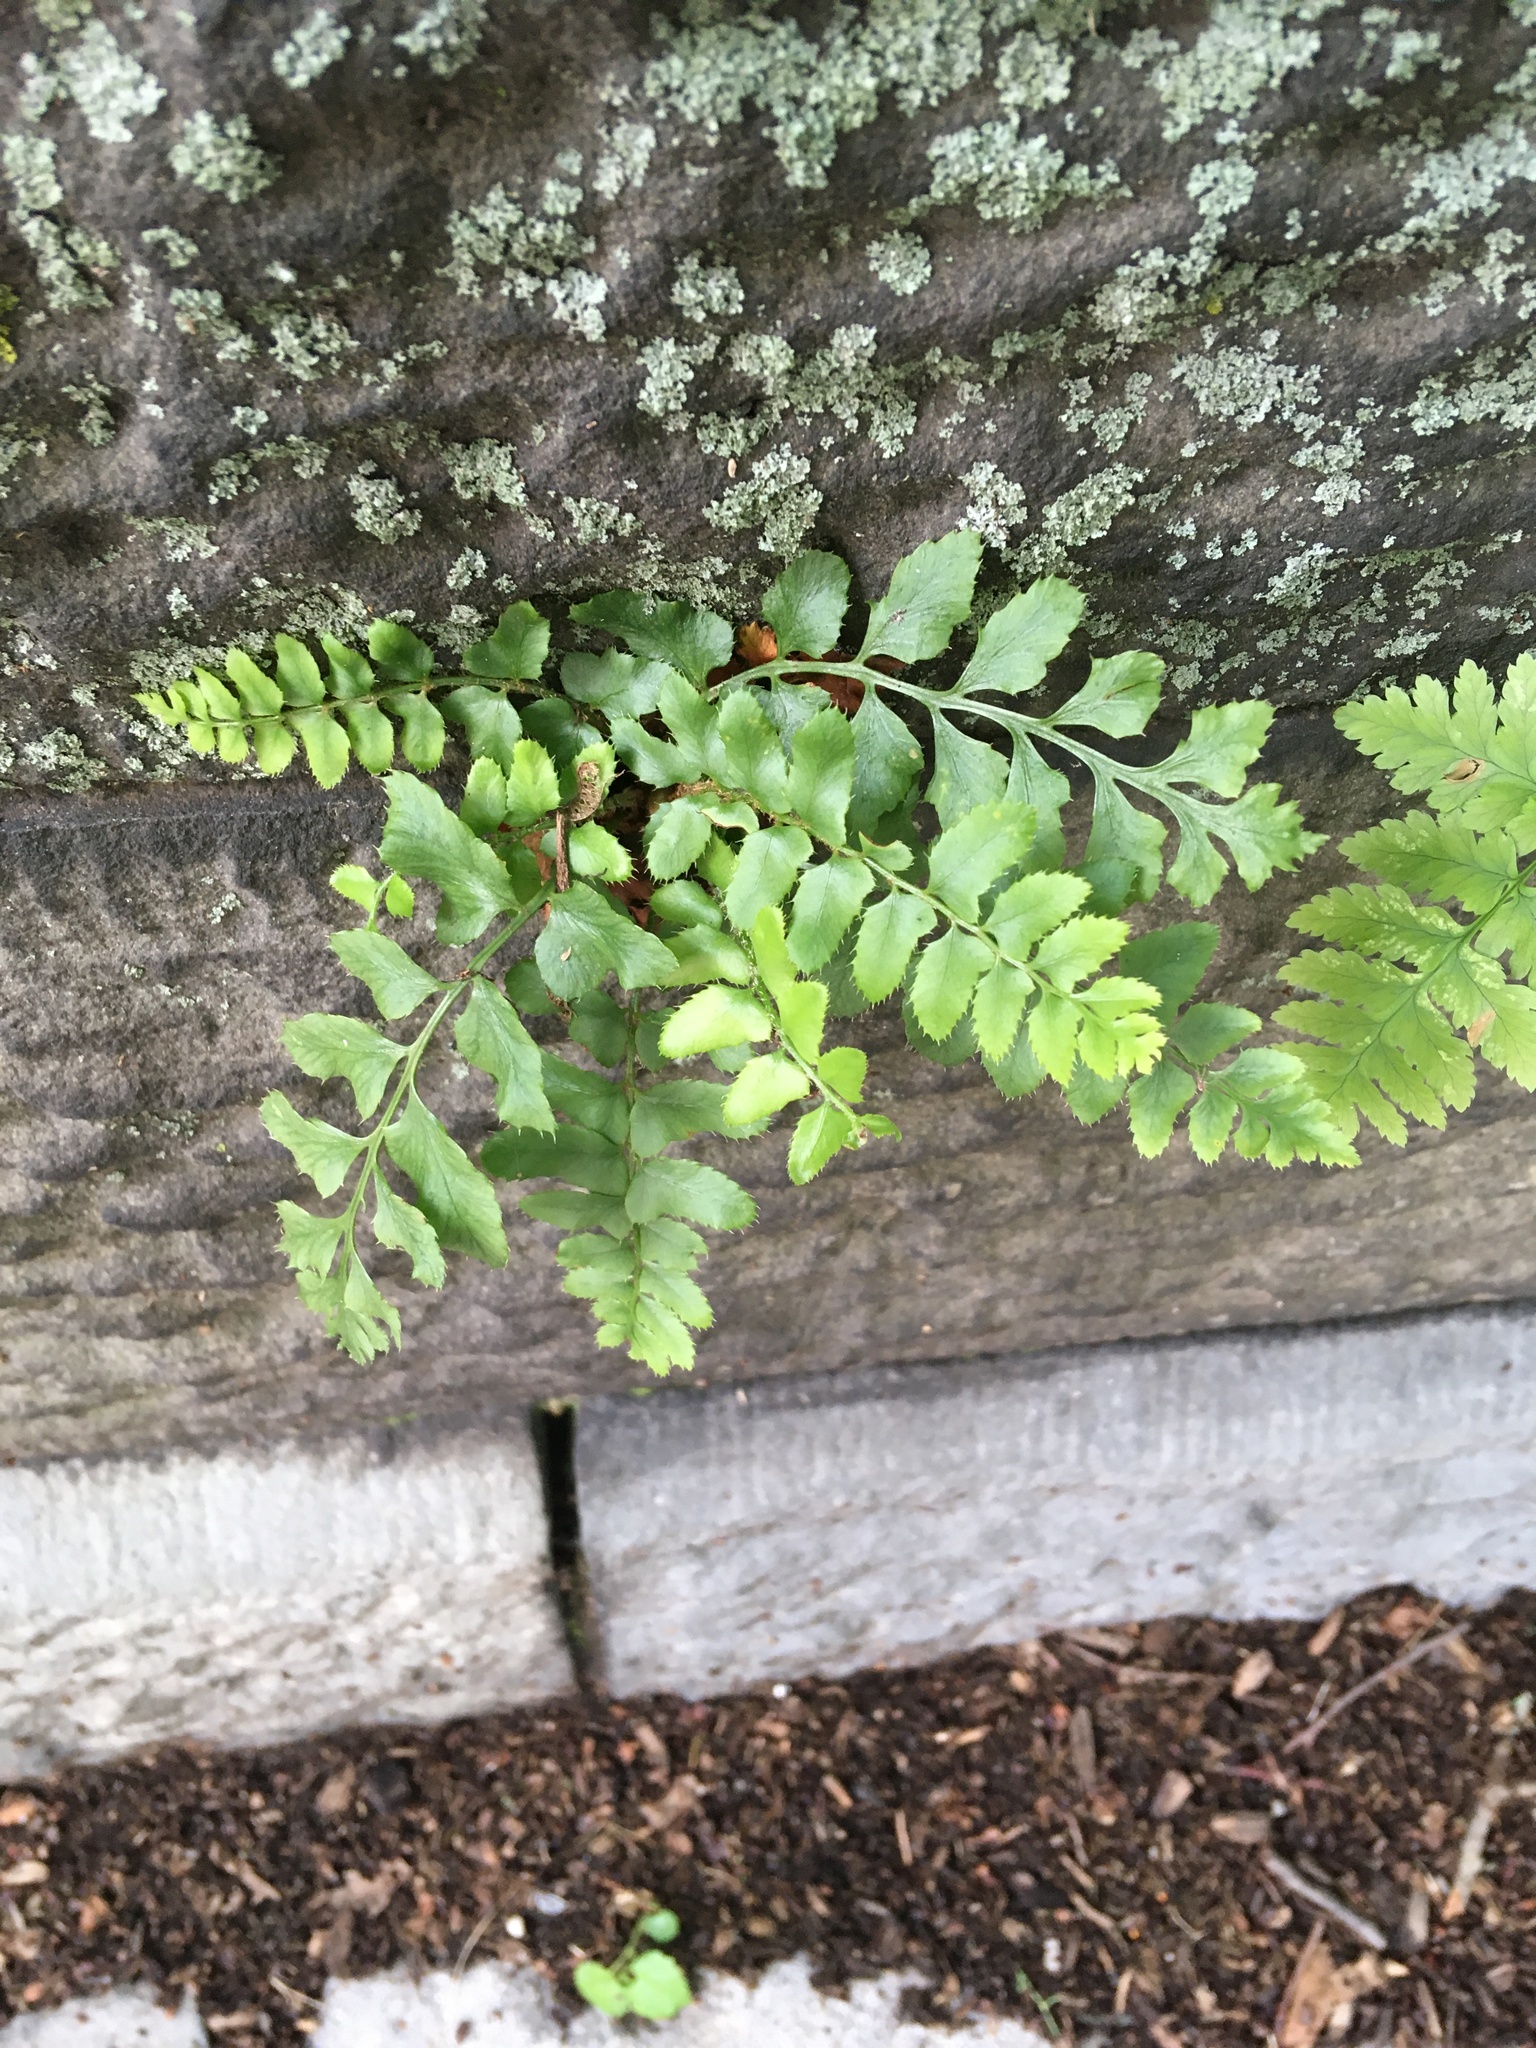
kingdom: Plantae
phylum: Tracheophyta
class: Polypodiopsida
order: Polypodiales
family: Dryopteridaceae
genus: Polystichum
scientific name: Polystichum acrostichoides
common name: Christmas fern
